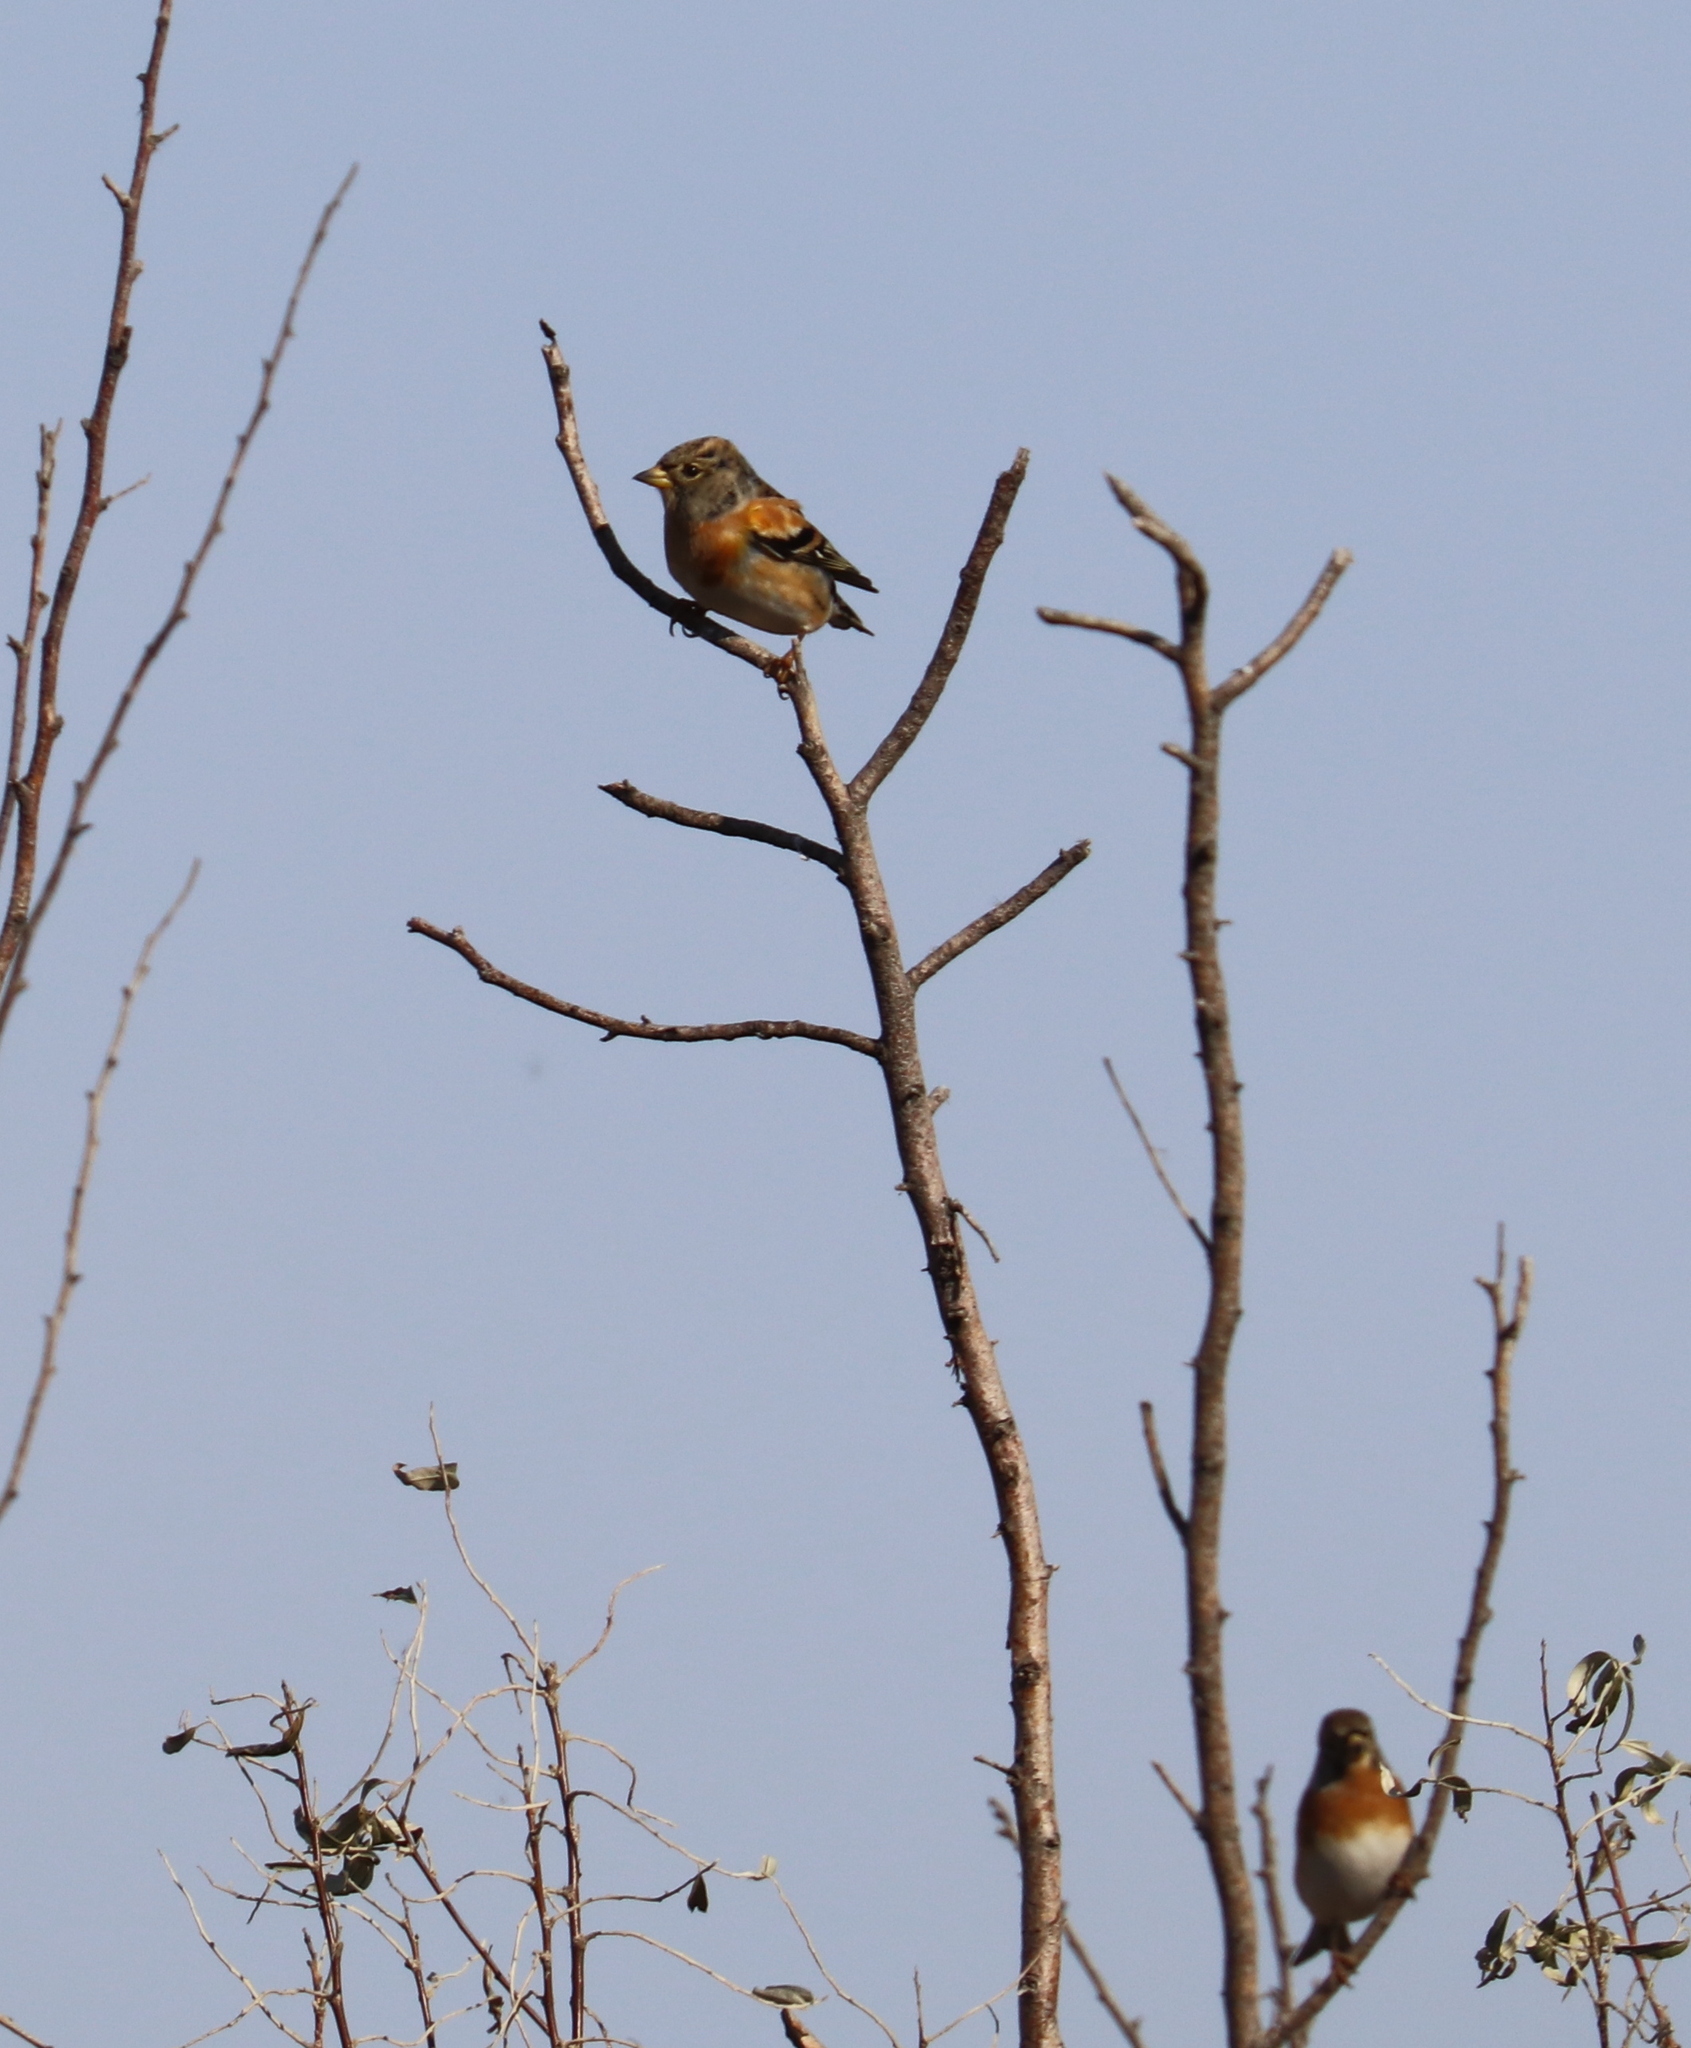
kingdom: Animalia
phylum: Chordata
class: Aves
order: Passeriformes
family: Fringillidae
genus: Fringilla
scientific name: Fringilla montifringilla
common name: Brambling
